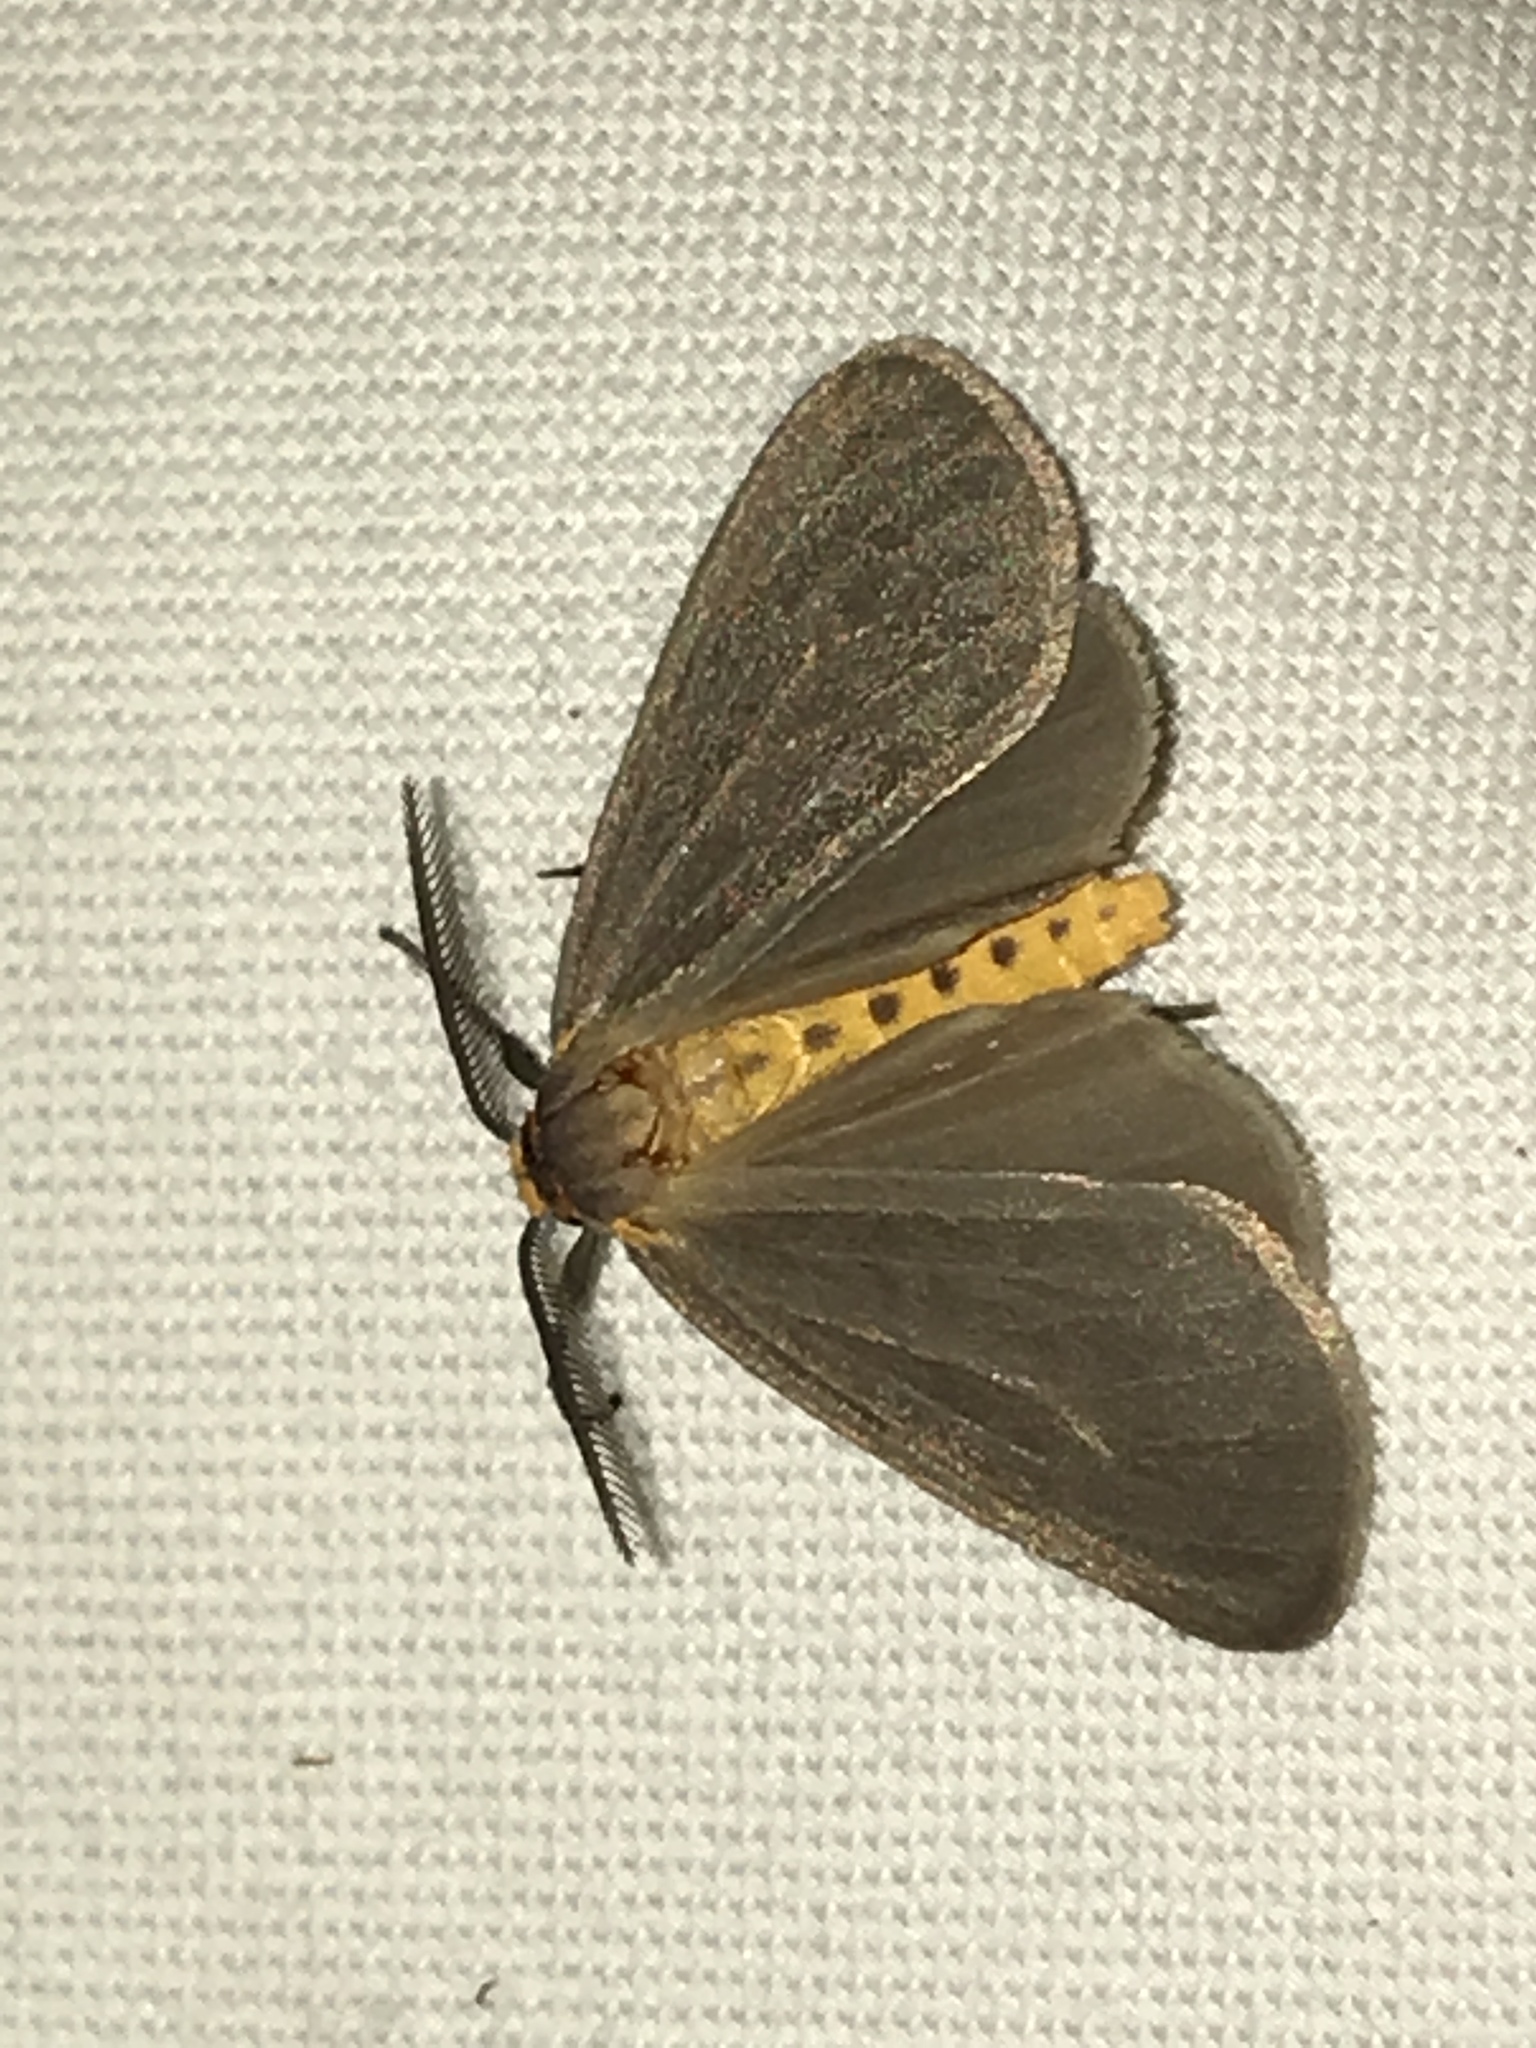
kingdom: Animalia
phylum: Arthropoda
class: Insecta
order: Lepidoptera
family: Erebidae
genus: Pagara
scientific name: Pagara simplex
